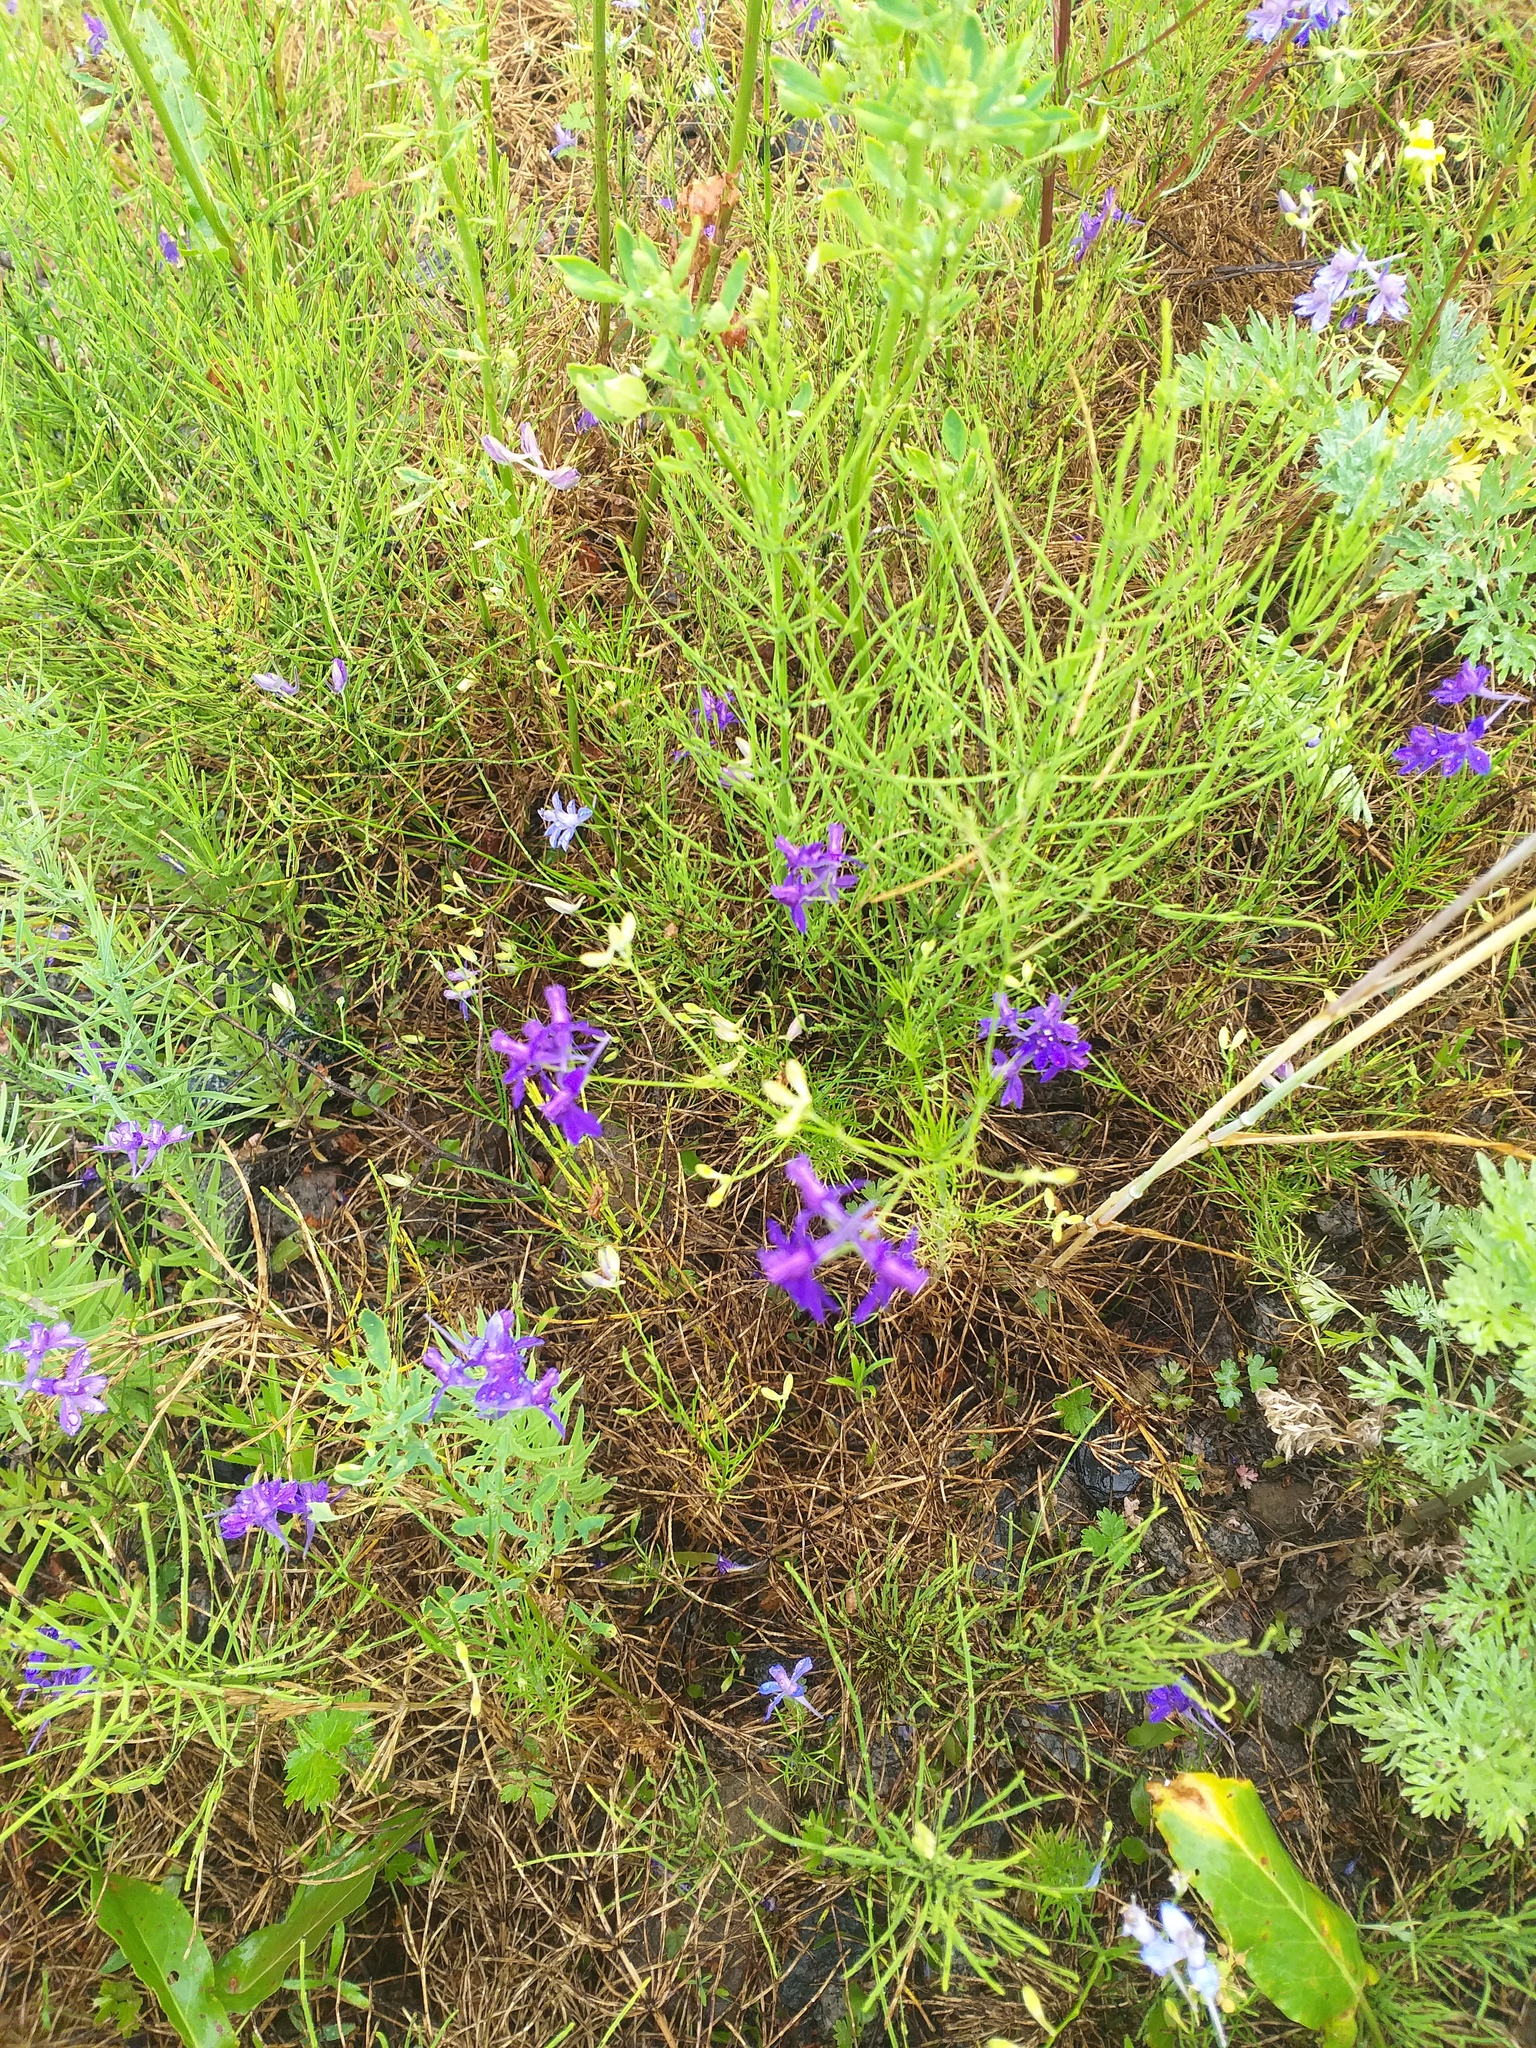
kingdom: Plantae
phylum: Tracheophyta
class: Magnoliopsida
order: Ranunculales
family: Ranunculaceae
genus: Delphinium
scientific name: Delphinium consolida
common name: Branching larkspur
